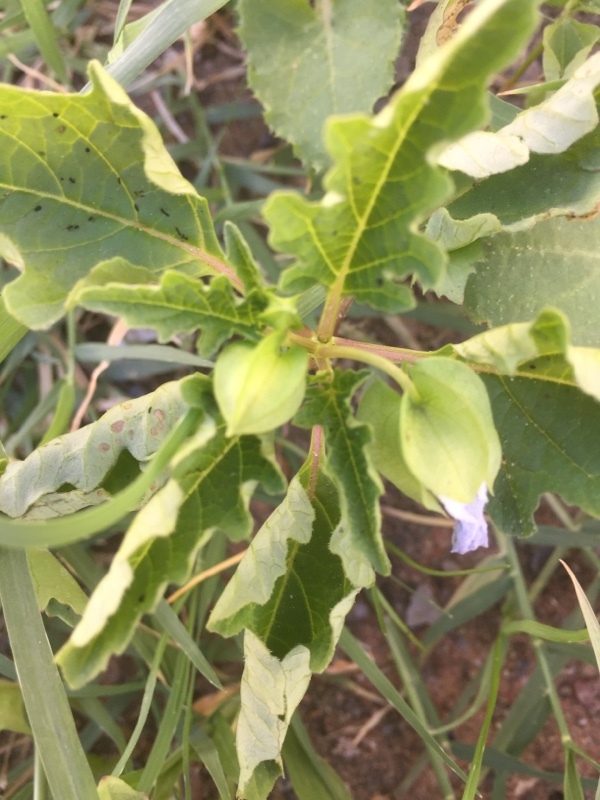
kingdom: Plantae
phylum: Tracheophyta
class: Magnoliopsida
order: Solanales
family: Solanaceae
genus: Nicandra
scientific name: Nicandra physalodes
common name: Apple-of-peru
